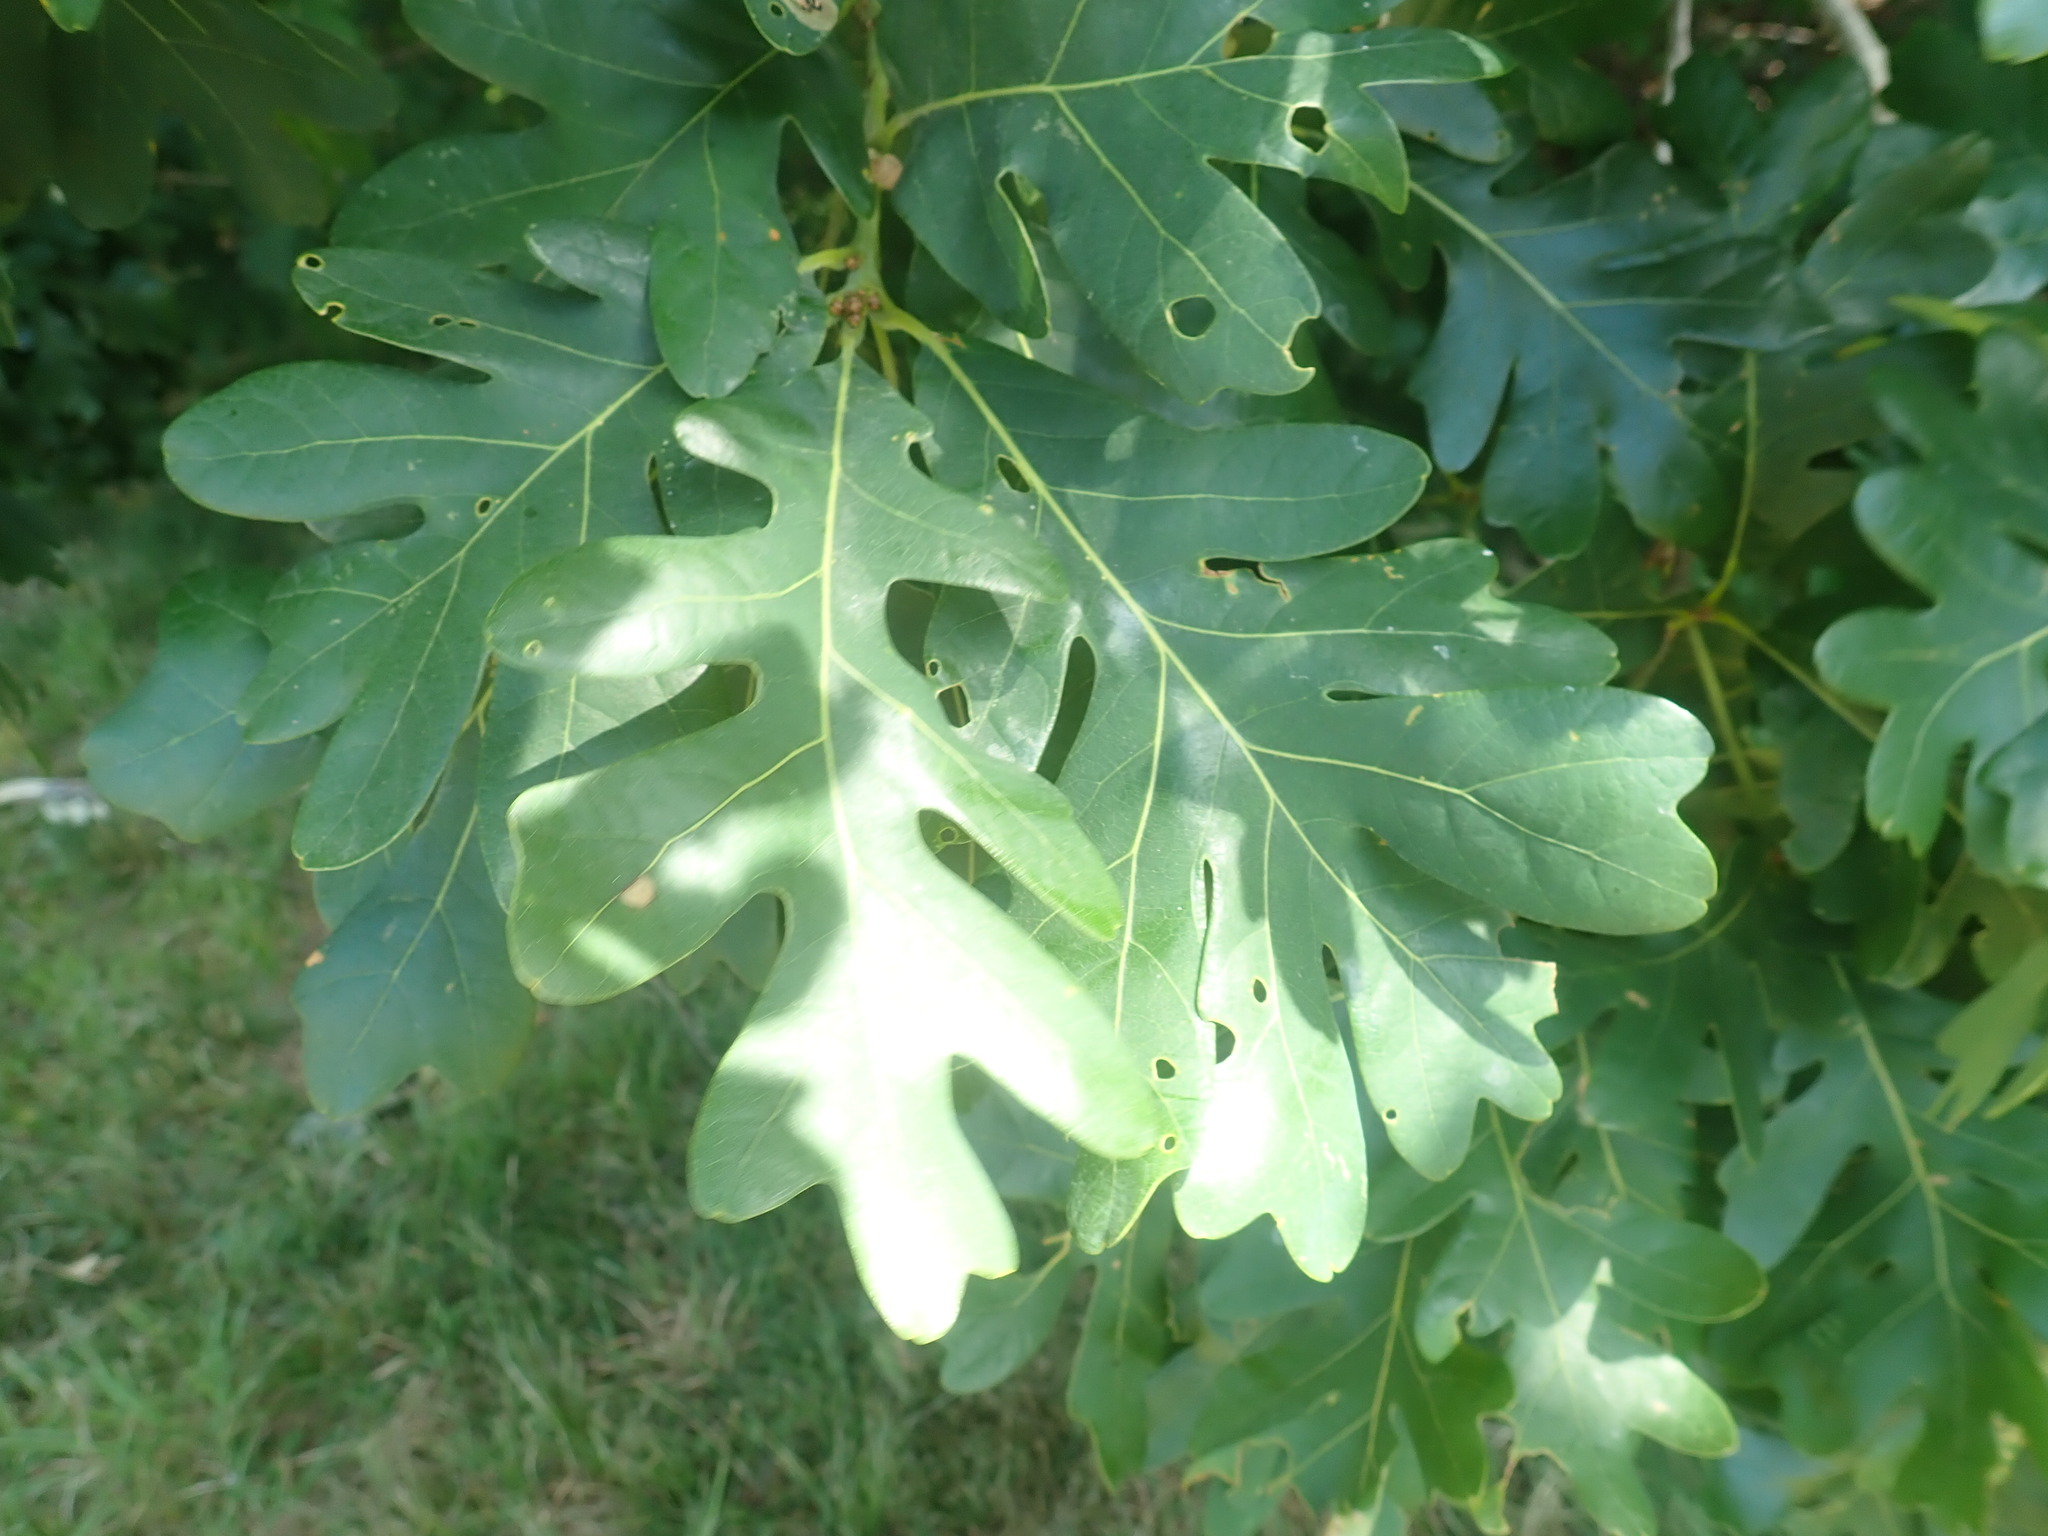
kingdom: Plantae
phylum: Tracheophyta
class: Magnoliopsida
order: Fagales
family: Fagaceae
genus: Quercus
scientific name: Quercus alba
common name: White oak
